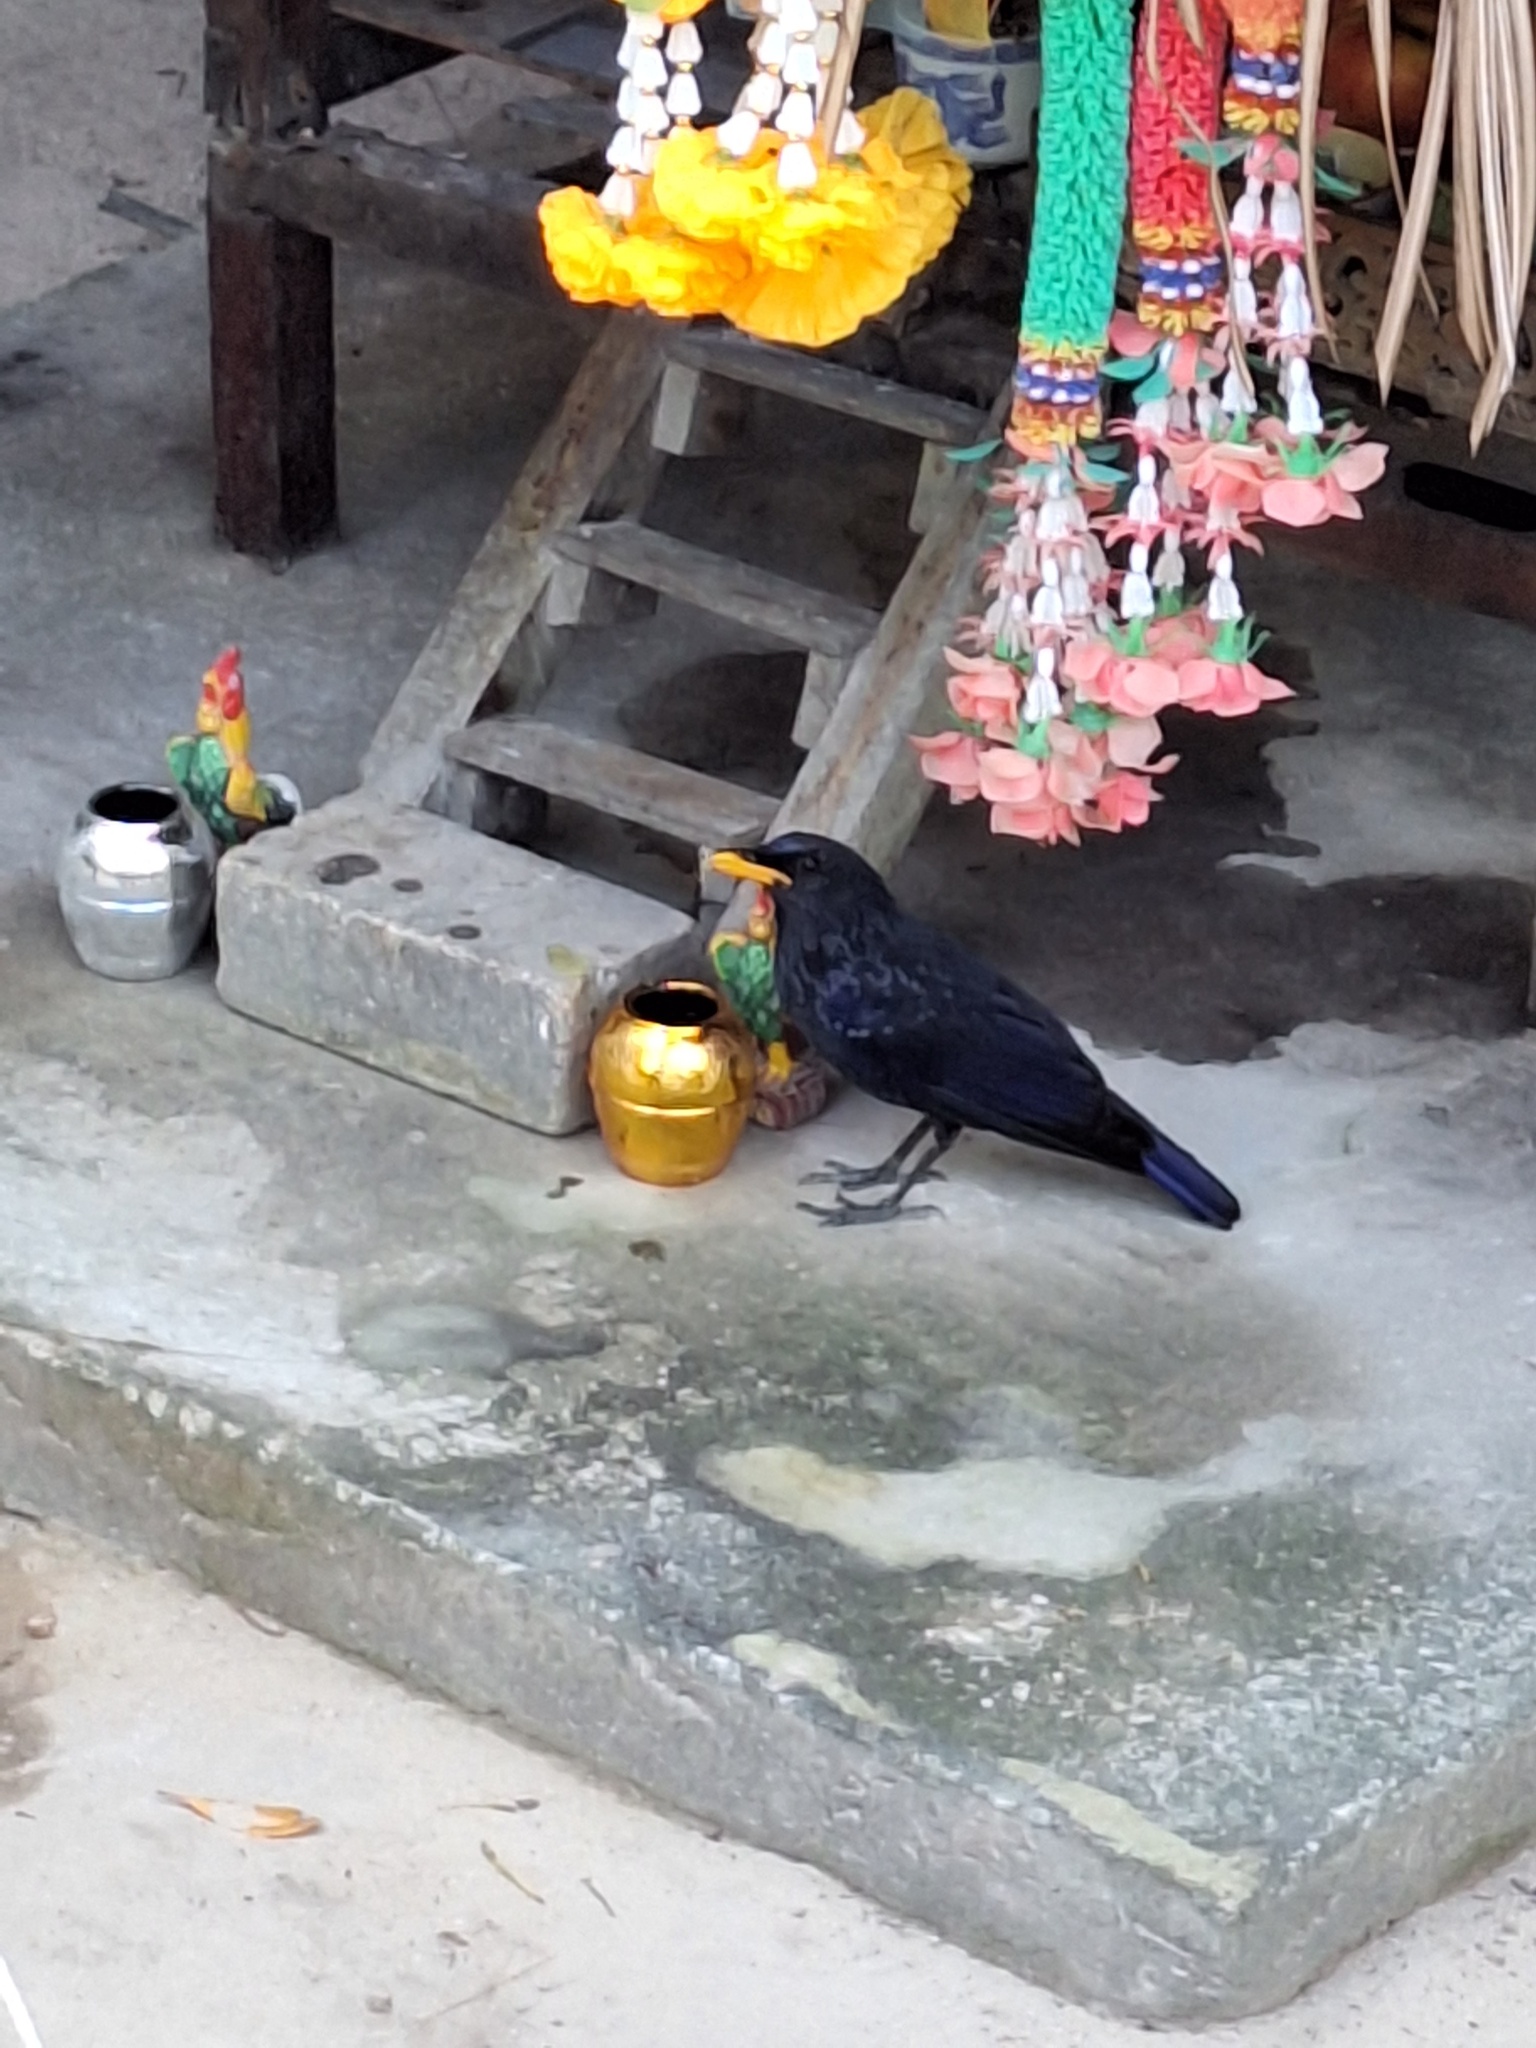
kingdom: Animalia
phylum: Chordata
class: Aves
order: Passeriformes
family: Muscicapidae
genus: Myophonus
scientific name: Myophonus caeruleus
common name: Blue whistling-thrush
